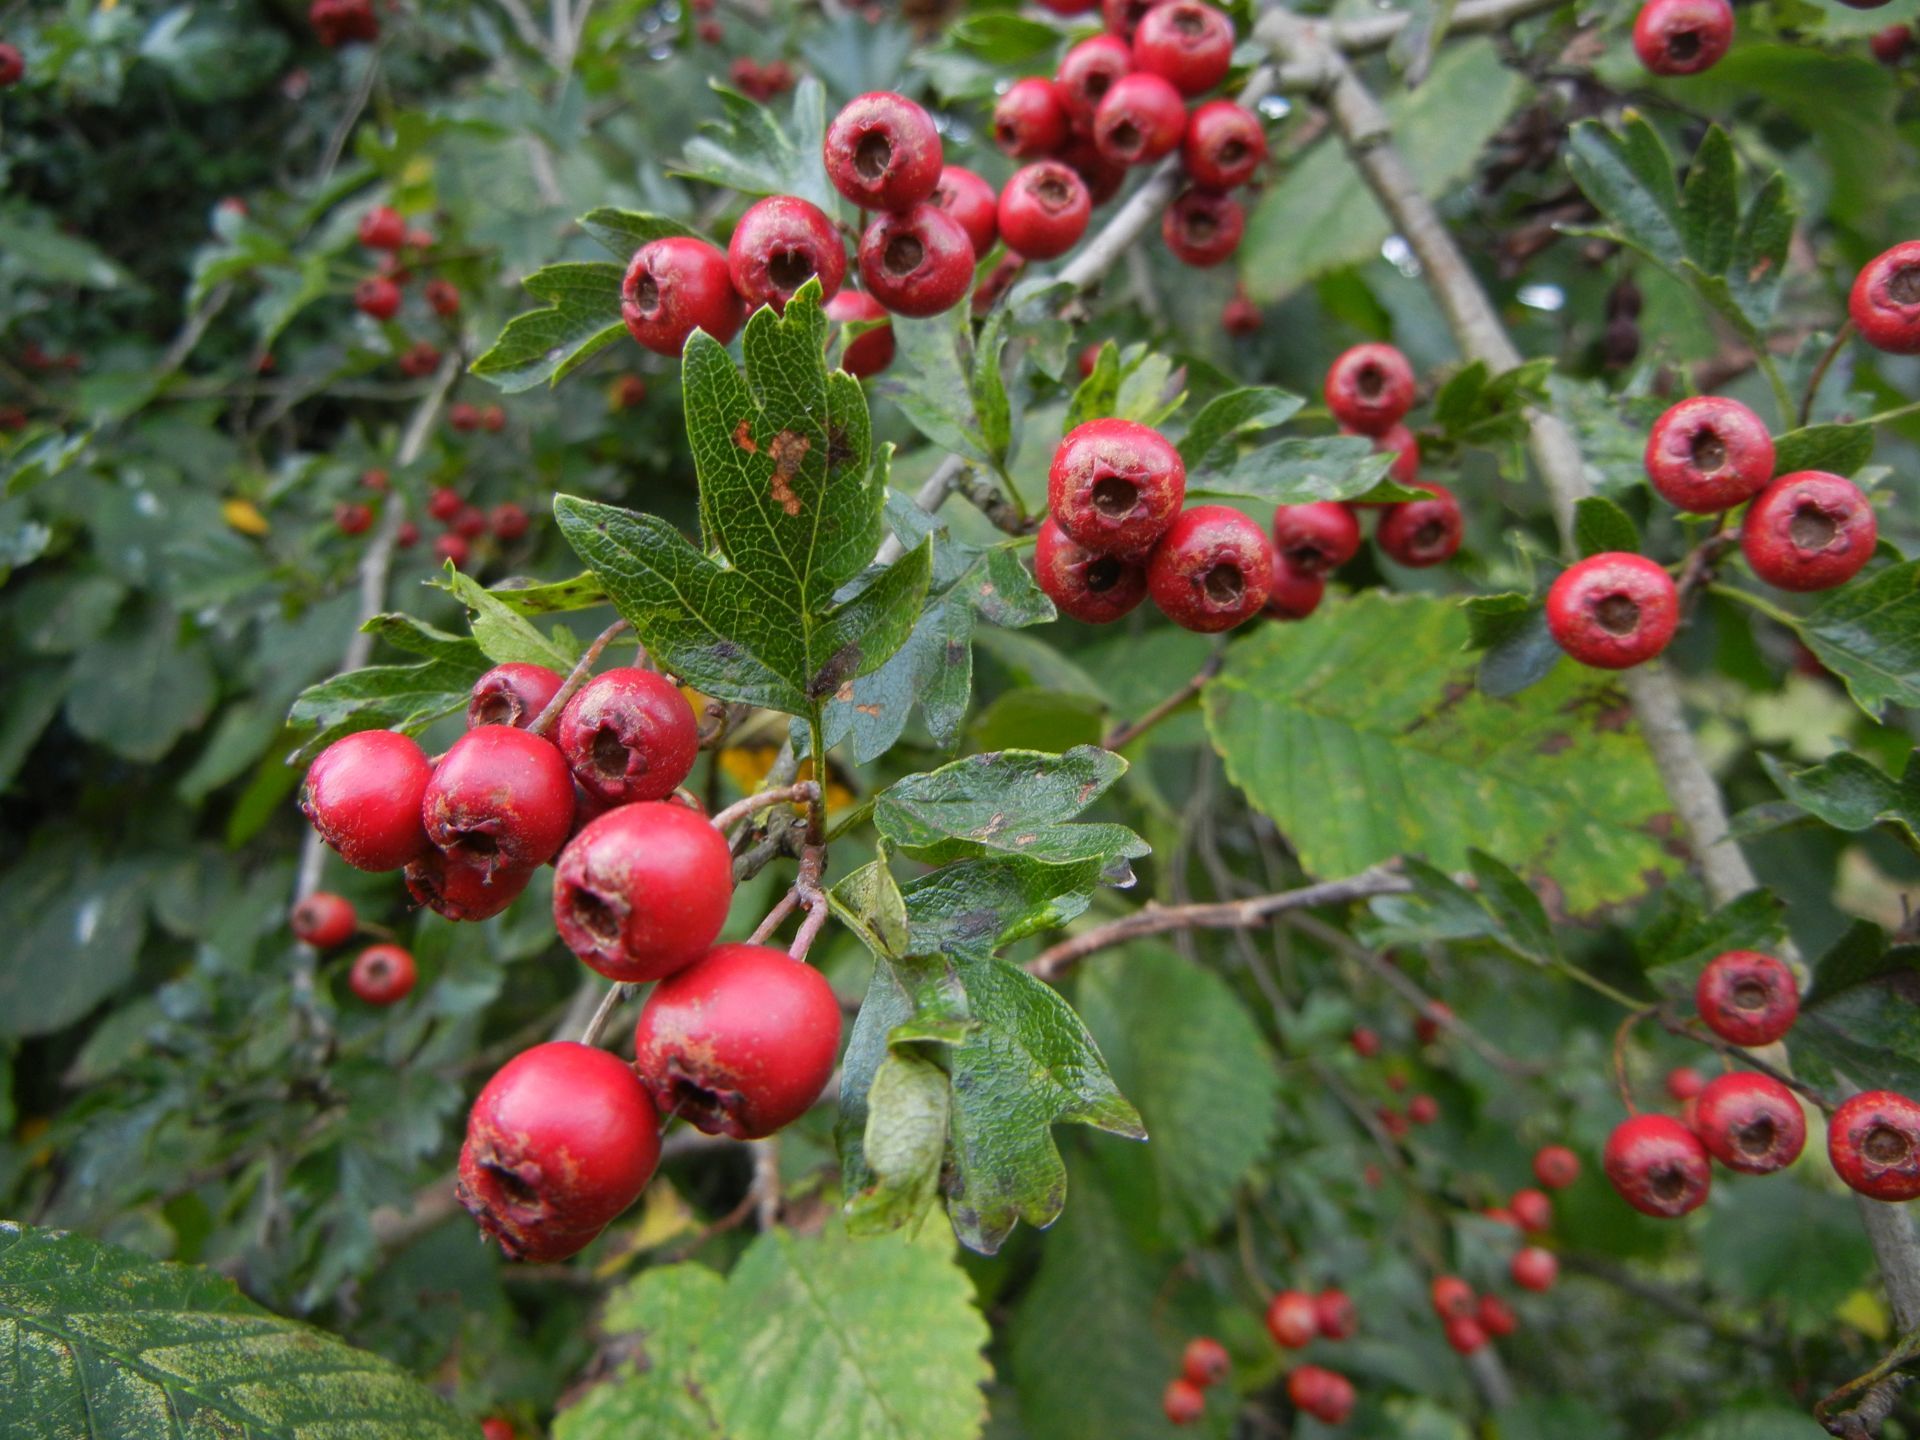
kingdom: Plantae
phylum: Tracheophyta
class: Magnoliopsida
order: Rosales
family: Rosaceae
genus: Crataegus
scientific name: Crataegus monogyna
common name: Hawthorn
